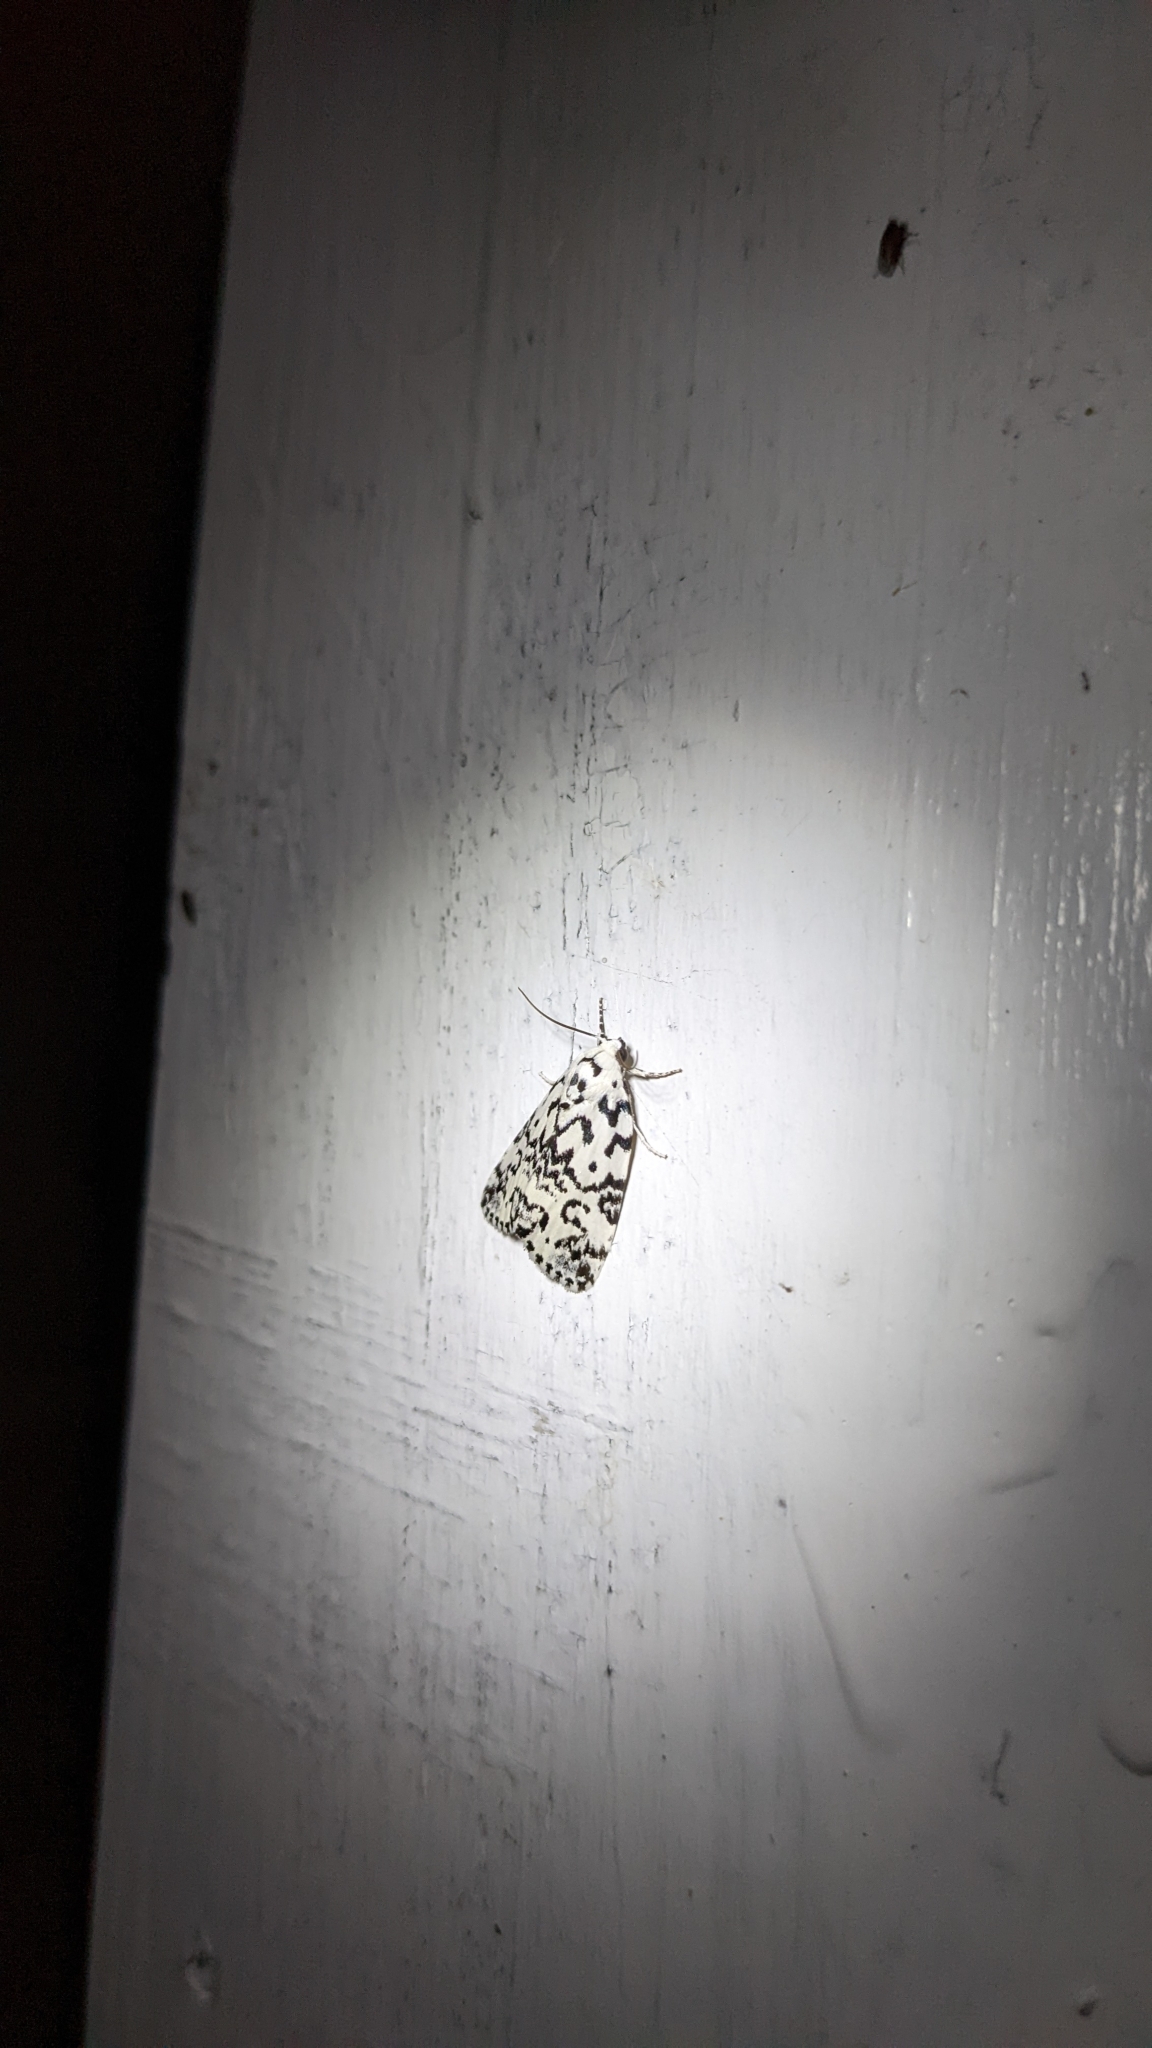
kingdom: Animalia
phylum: Arthropoda
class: Insecta
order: Lepidoptera
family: Noctuidae
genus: Polygrammate
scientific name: Polygrammate hebraeicum
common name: Hebrew moth
